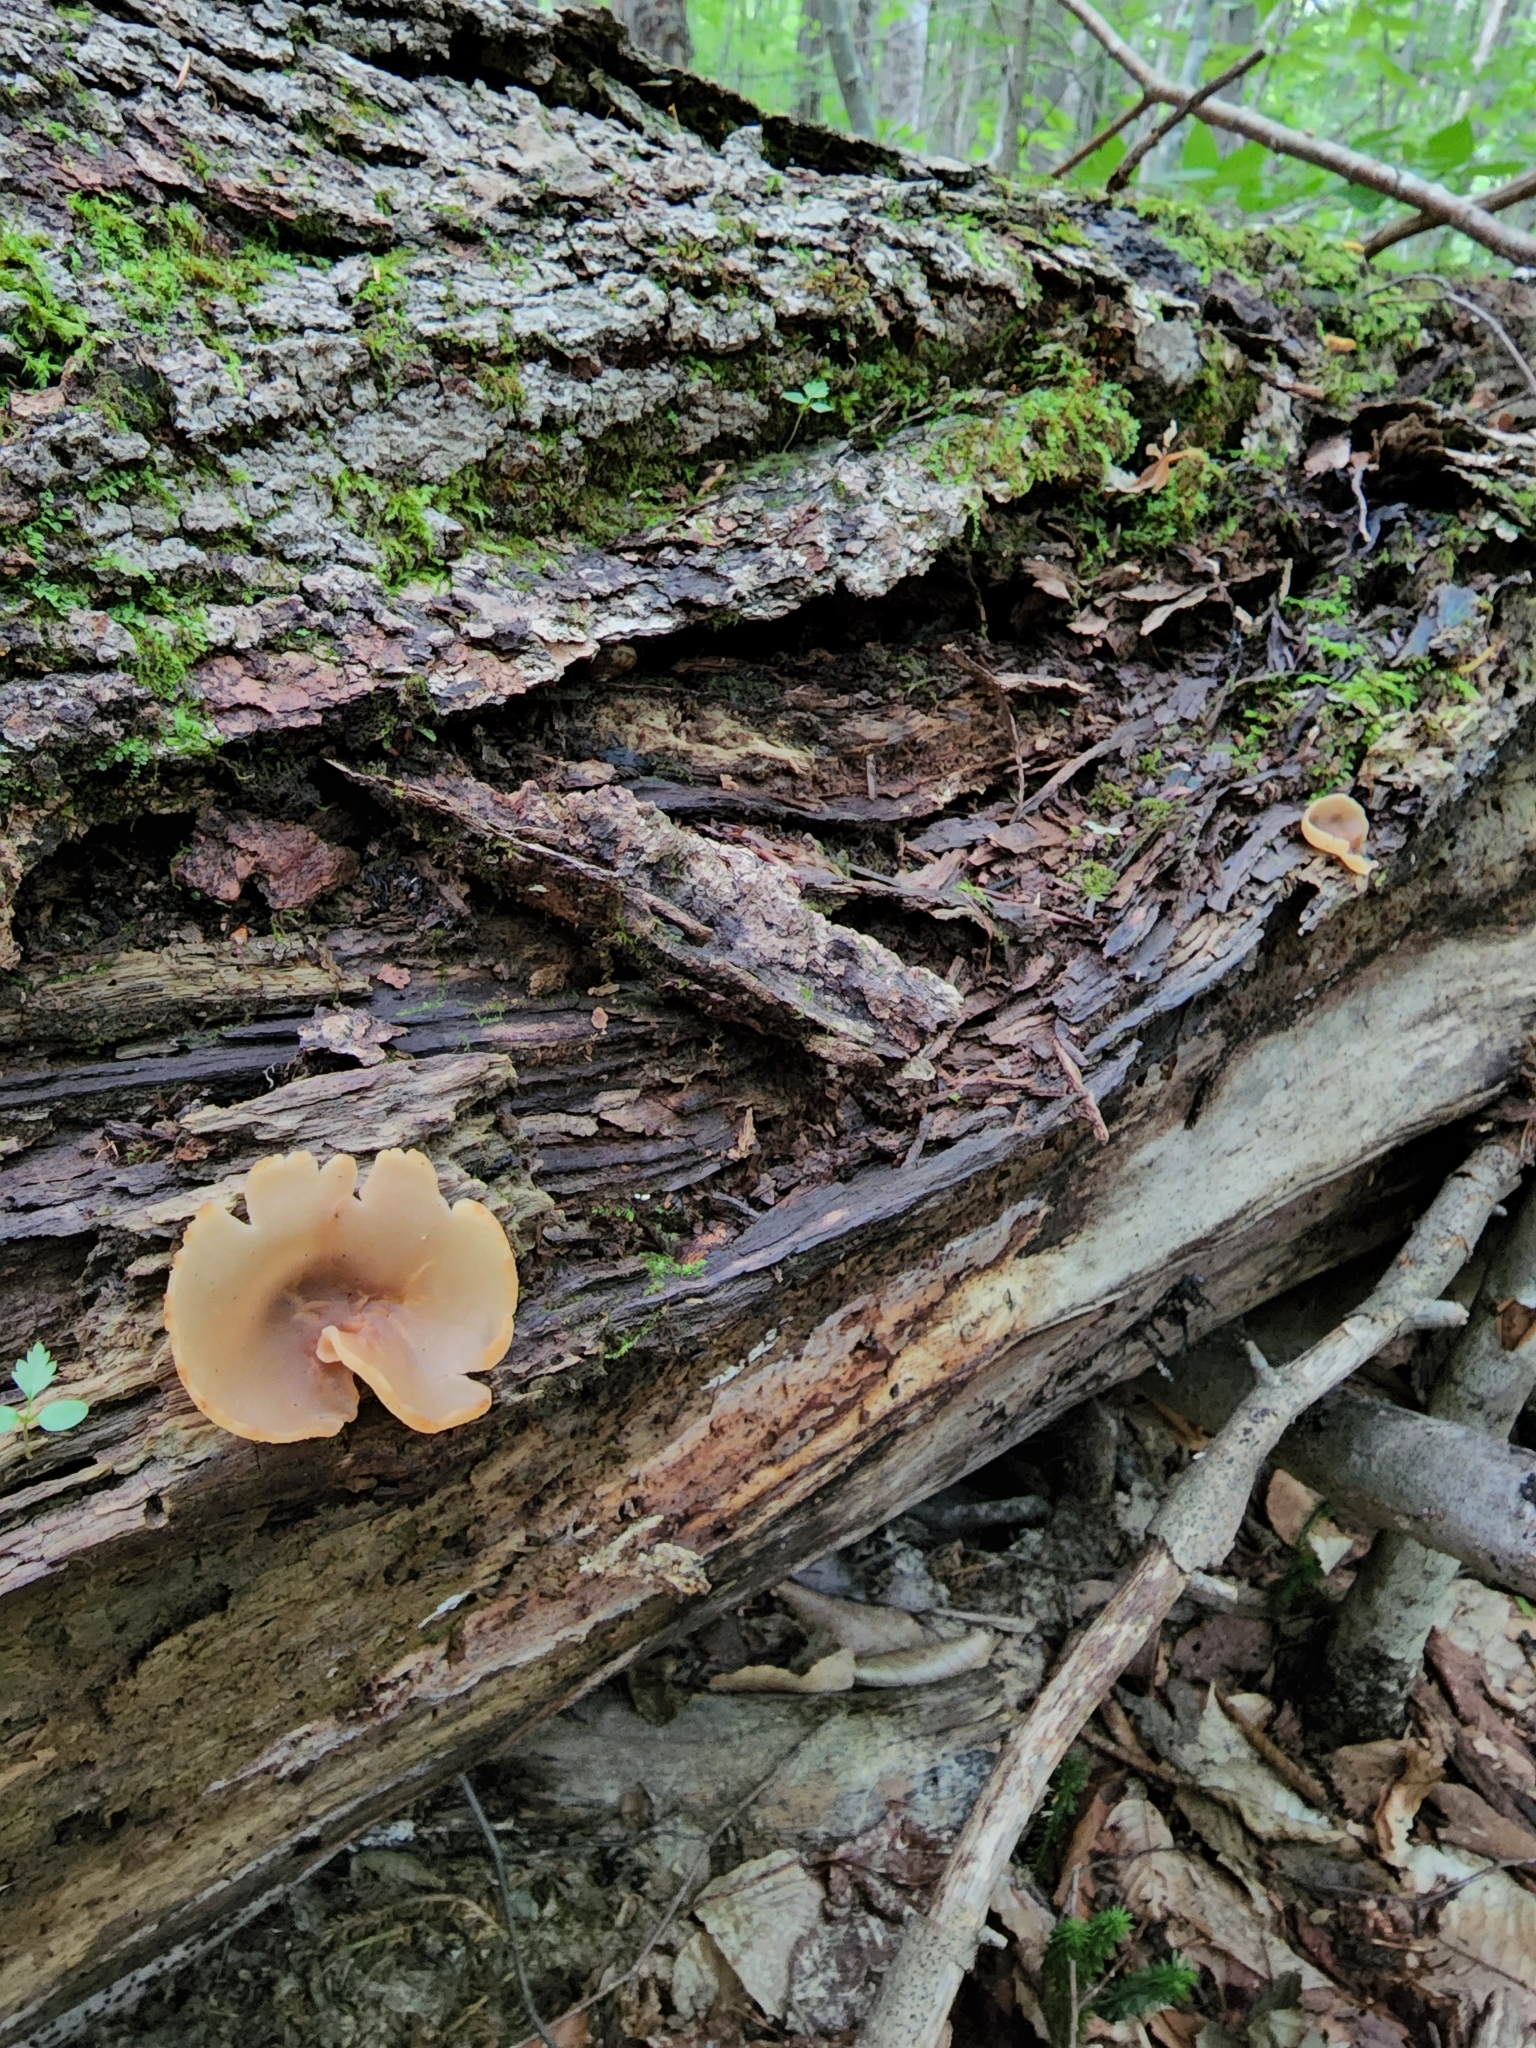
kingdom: Fungi
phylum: Ascomycota
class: Pezizomycetes
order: Pezizales
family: Pezizaceae
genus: Peziza
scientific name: Peziza varia
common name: Layered cup
